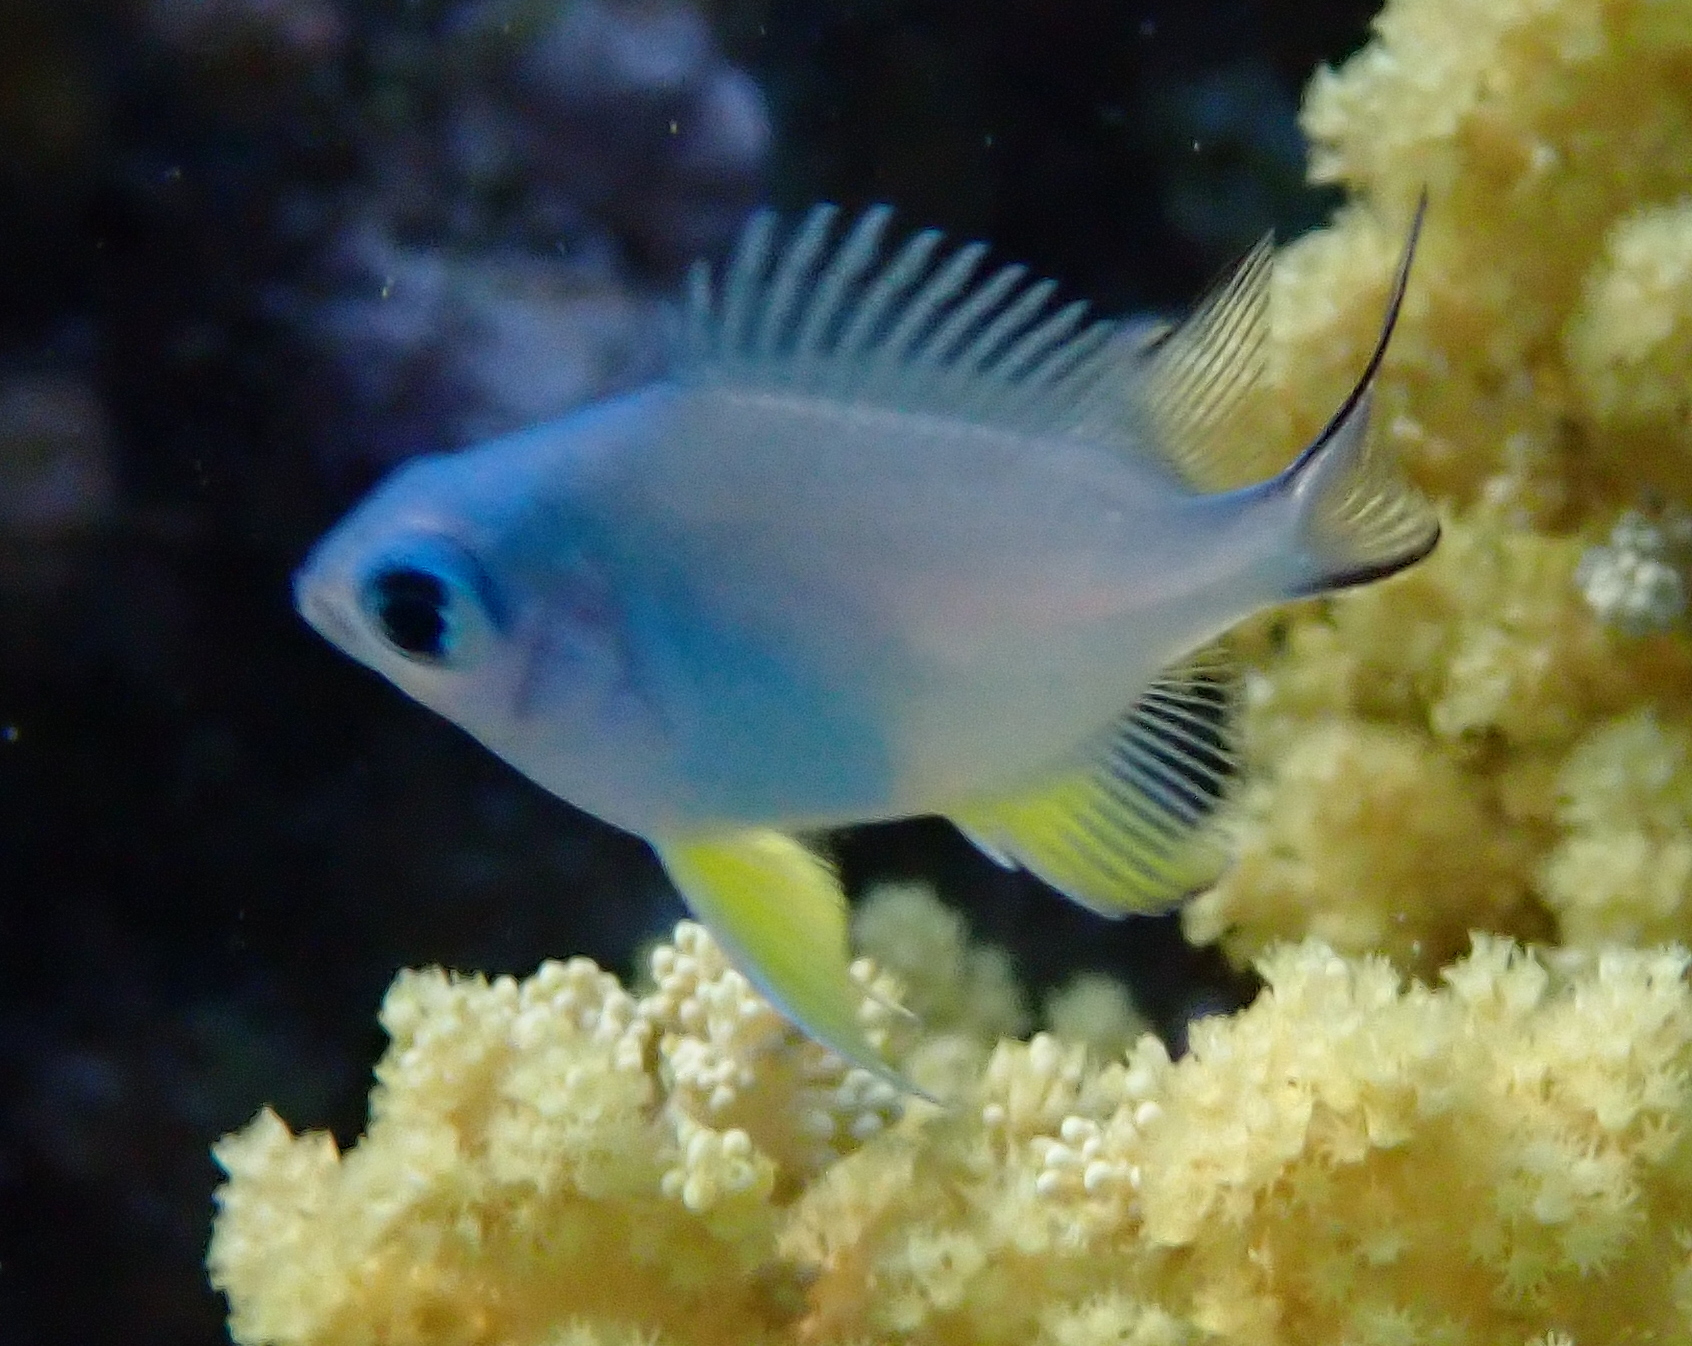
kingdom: Animalia
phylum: Chordata
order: Perciformes
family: Pomacentridae
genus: Amblyglyphidodon
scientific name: Amblyglyphidodon indicus
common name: Maldives damselfish
